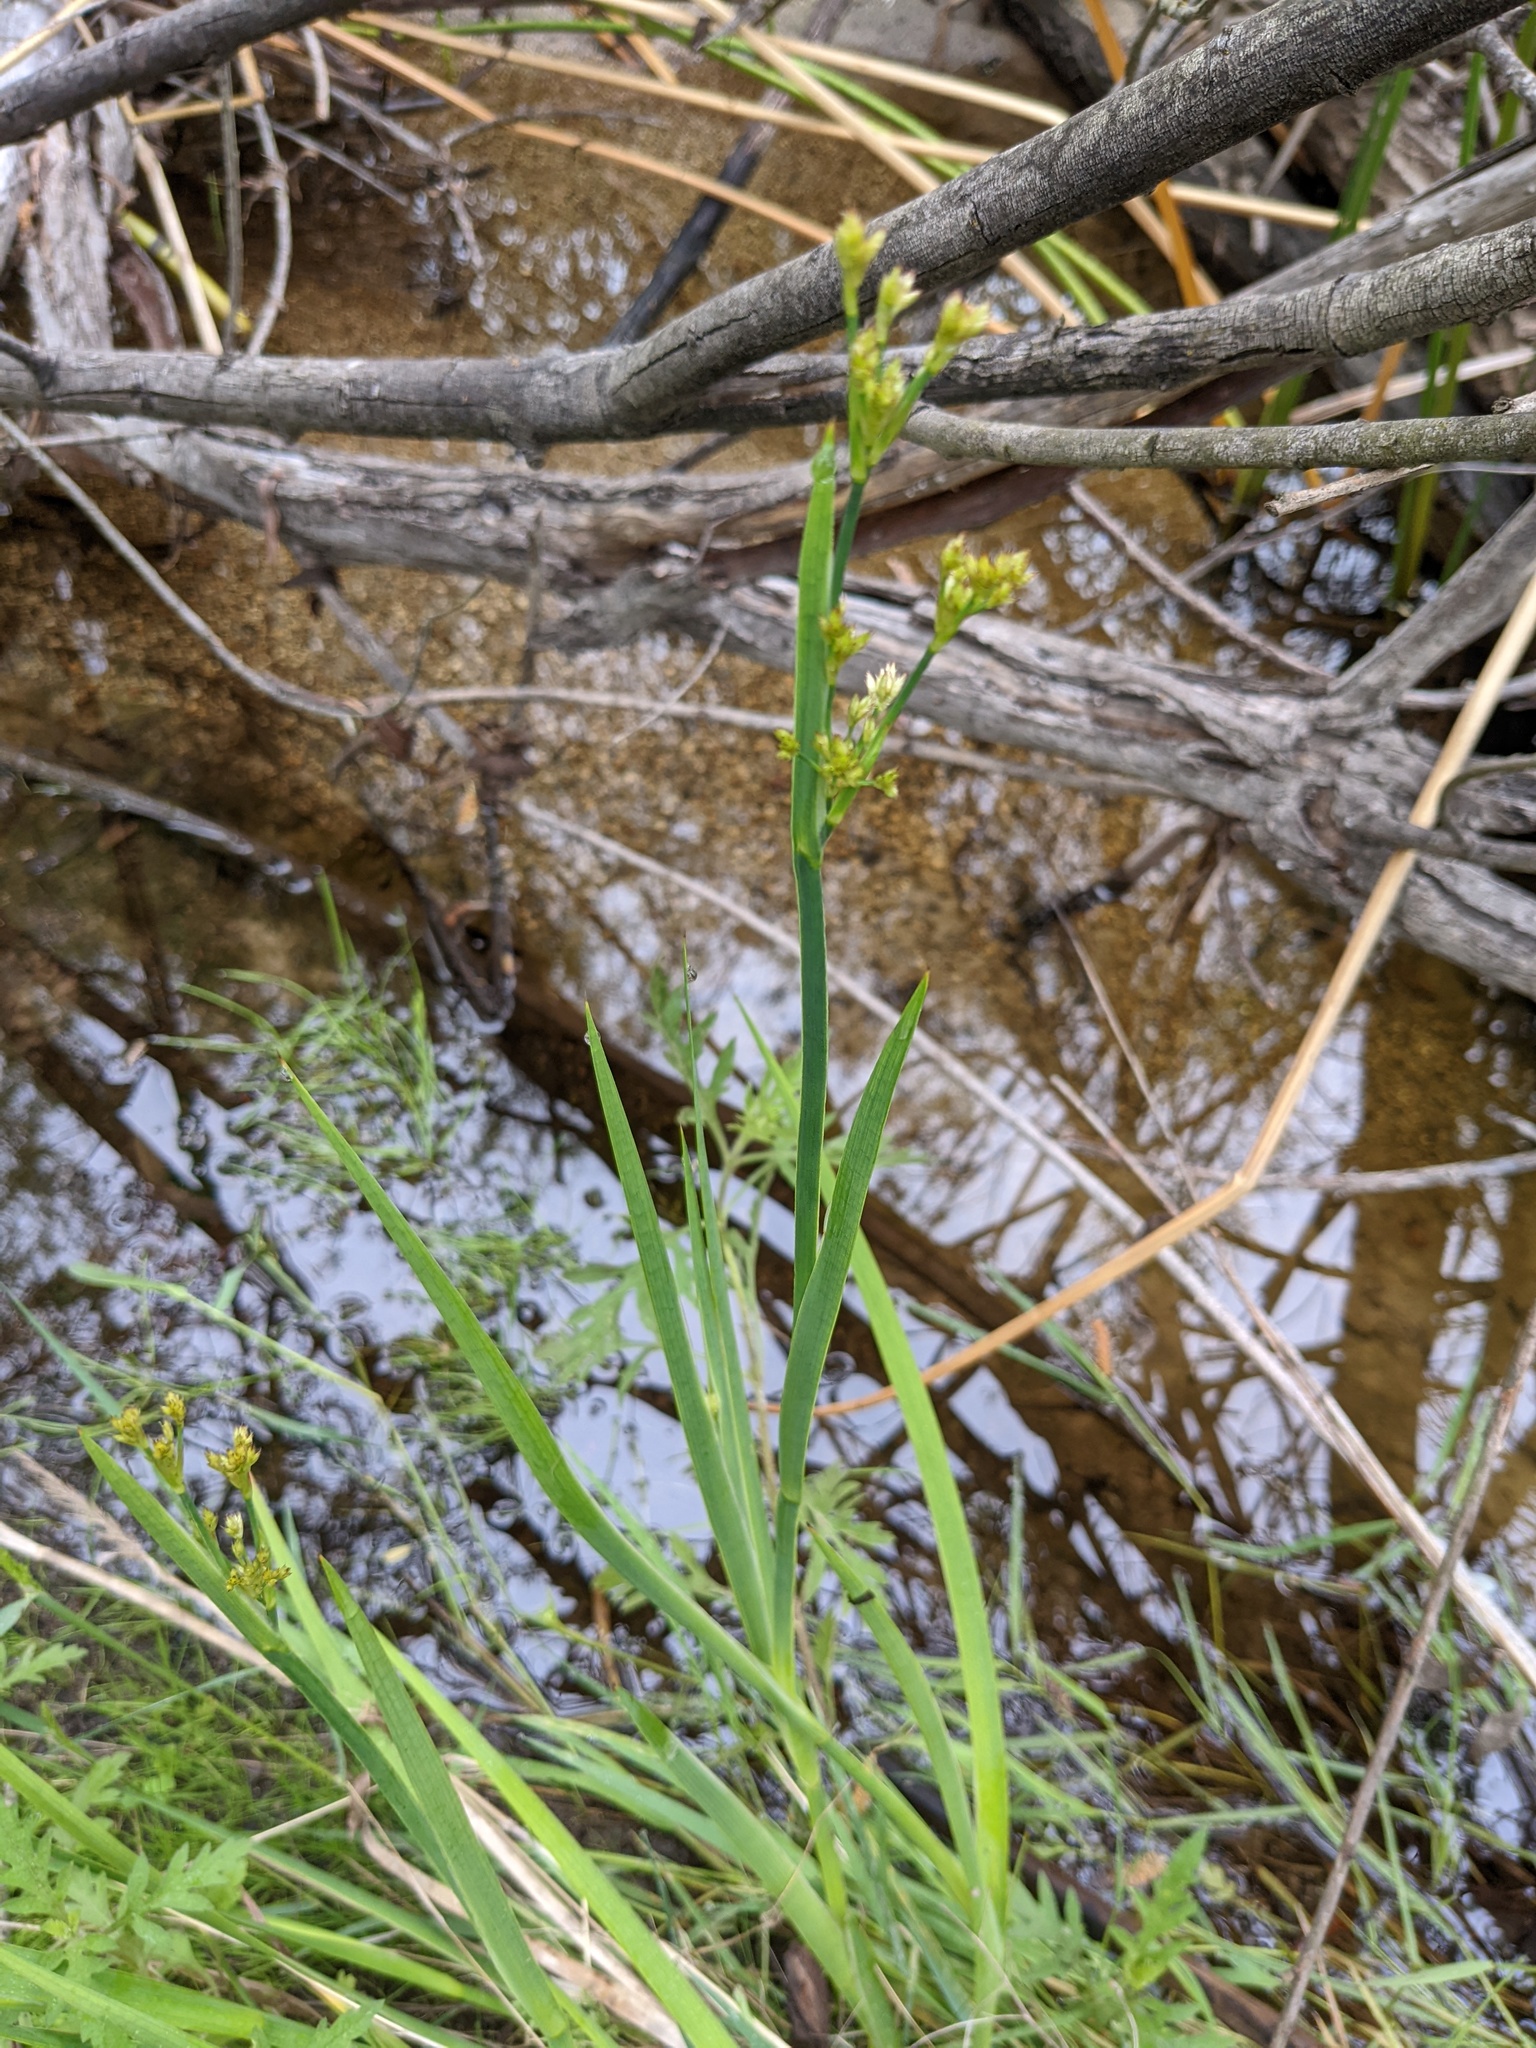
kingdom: Plantae
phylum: Tracheophyta
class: Liliopsida
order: Poales
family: Juncaceae
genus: Juncus
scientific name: Juncus xiphioides
